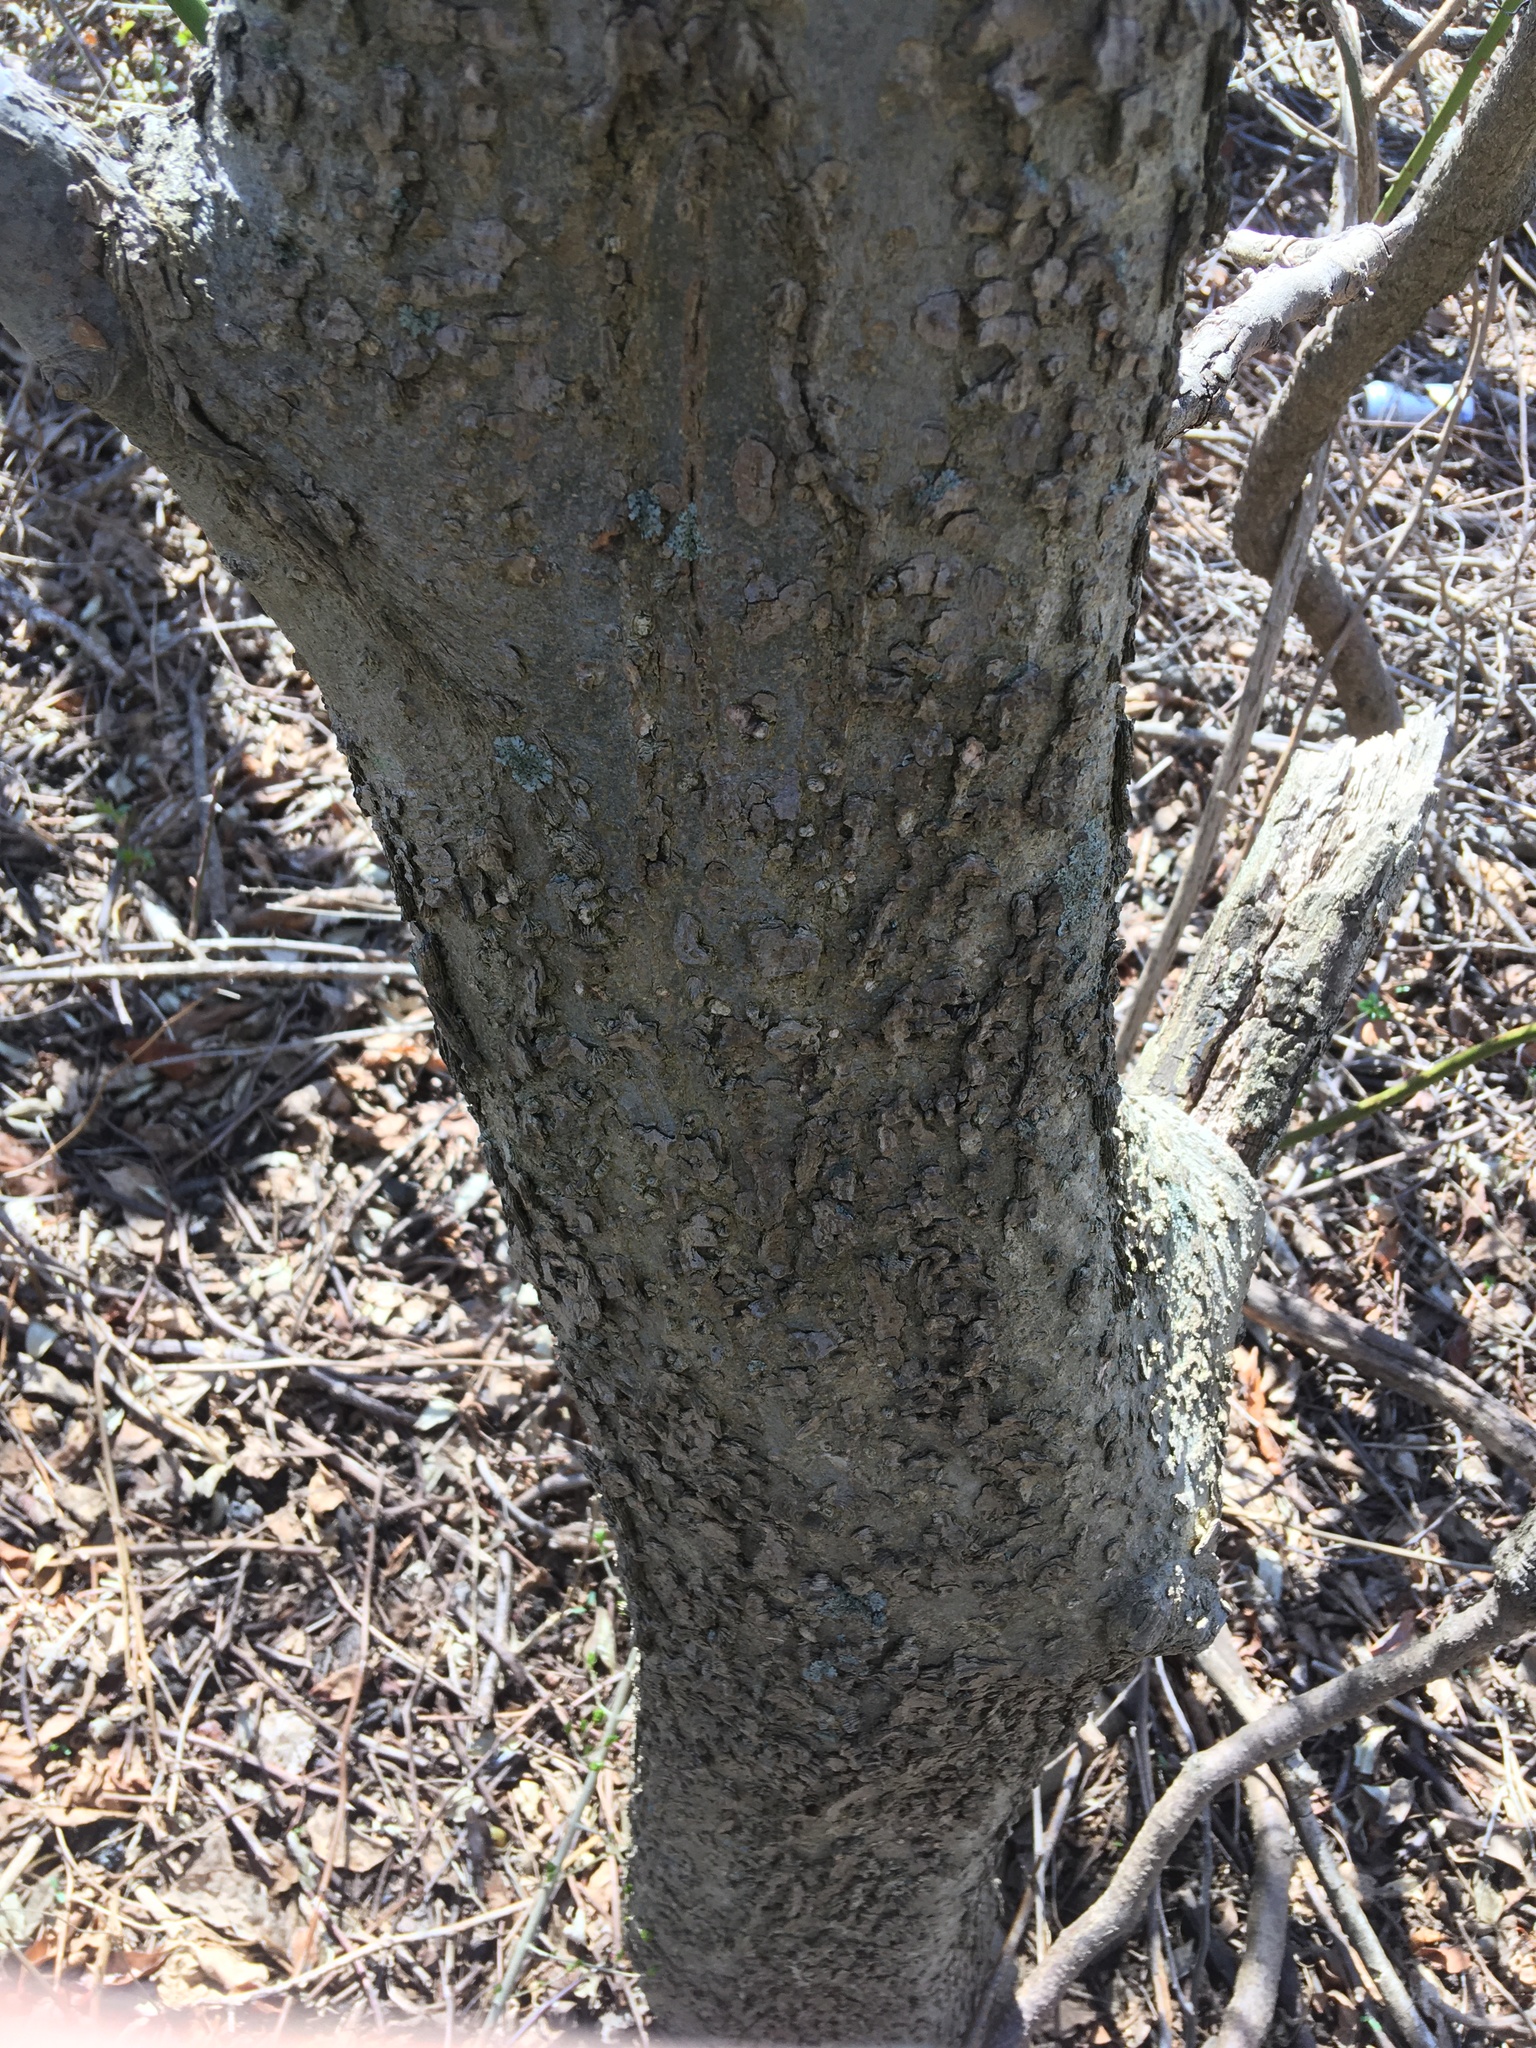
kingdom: Plantae
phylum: Tracheophyta
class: Magnoliopsida
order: Rosales
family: Cannabaceae
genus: Celtis
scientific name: Celtis occidentalis
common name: Common hackberry
